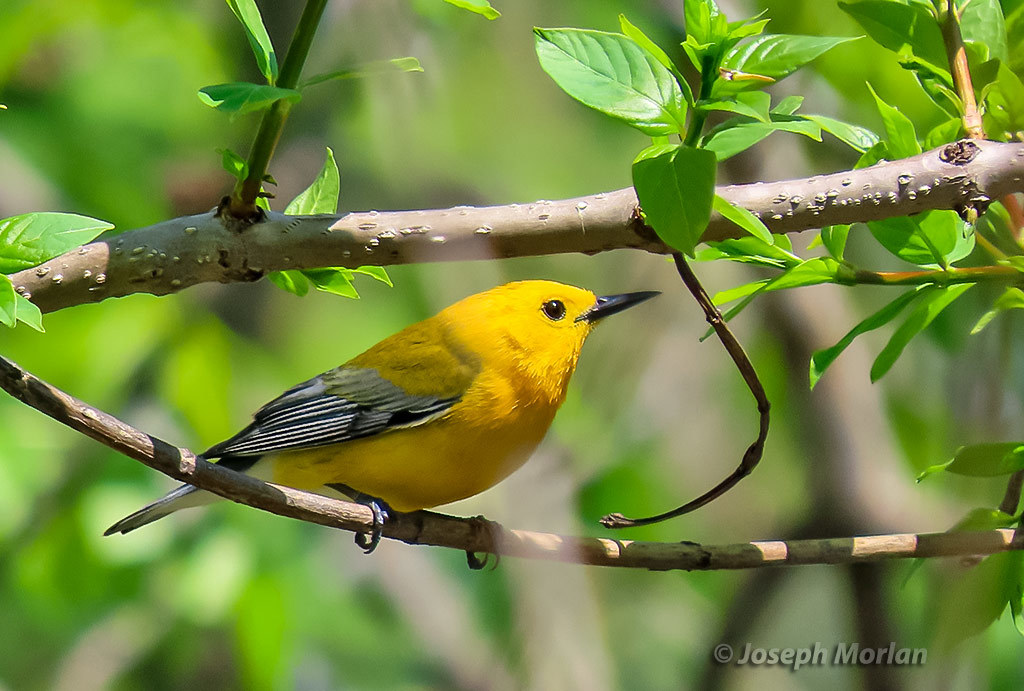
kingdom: Animalia
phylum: Chordata
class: Aves
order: Passeriformes
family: Parulidae
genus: Protonotaria
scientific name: Protonotaria citrea
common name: Prothonotary warbler
